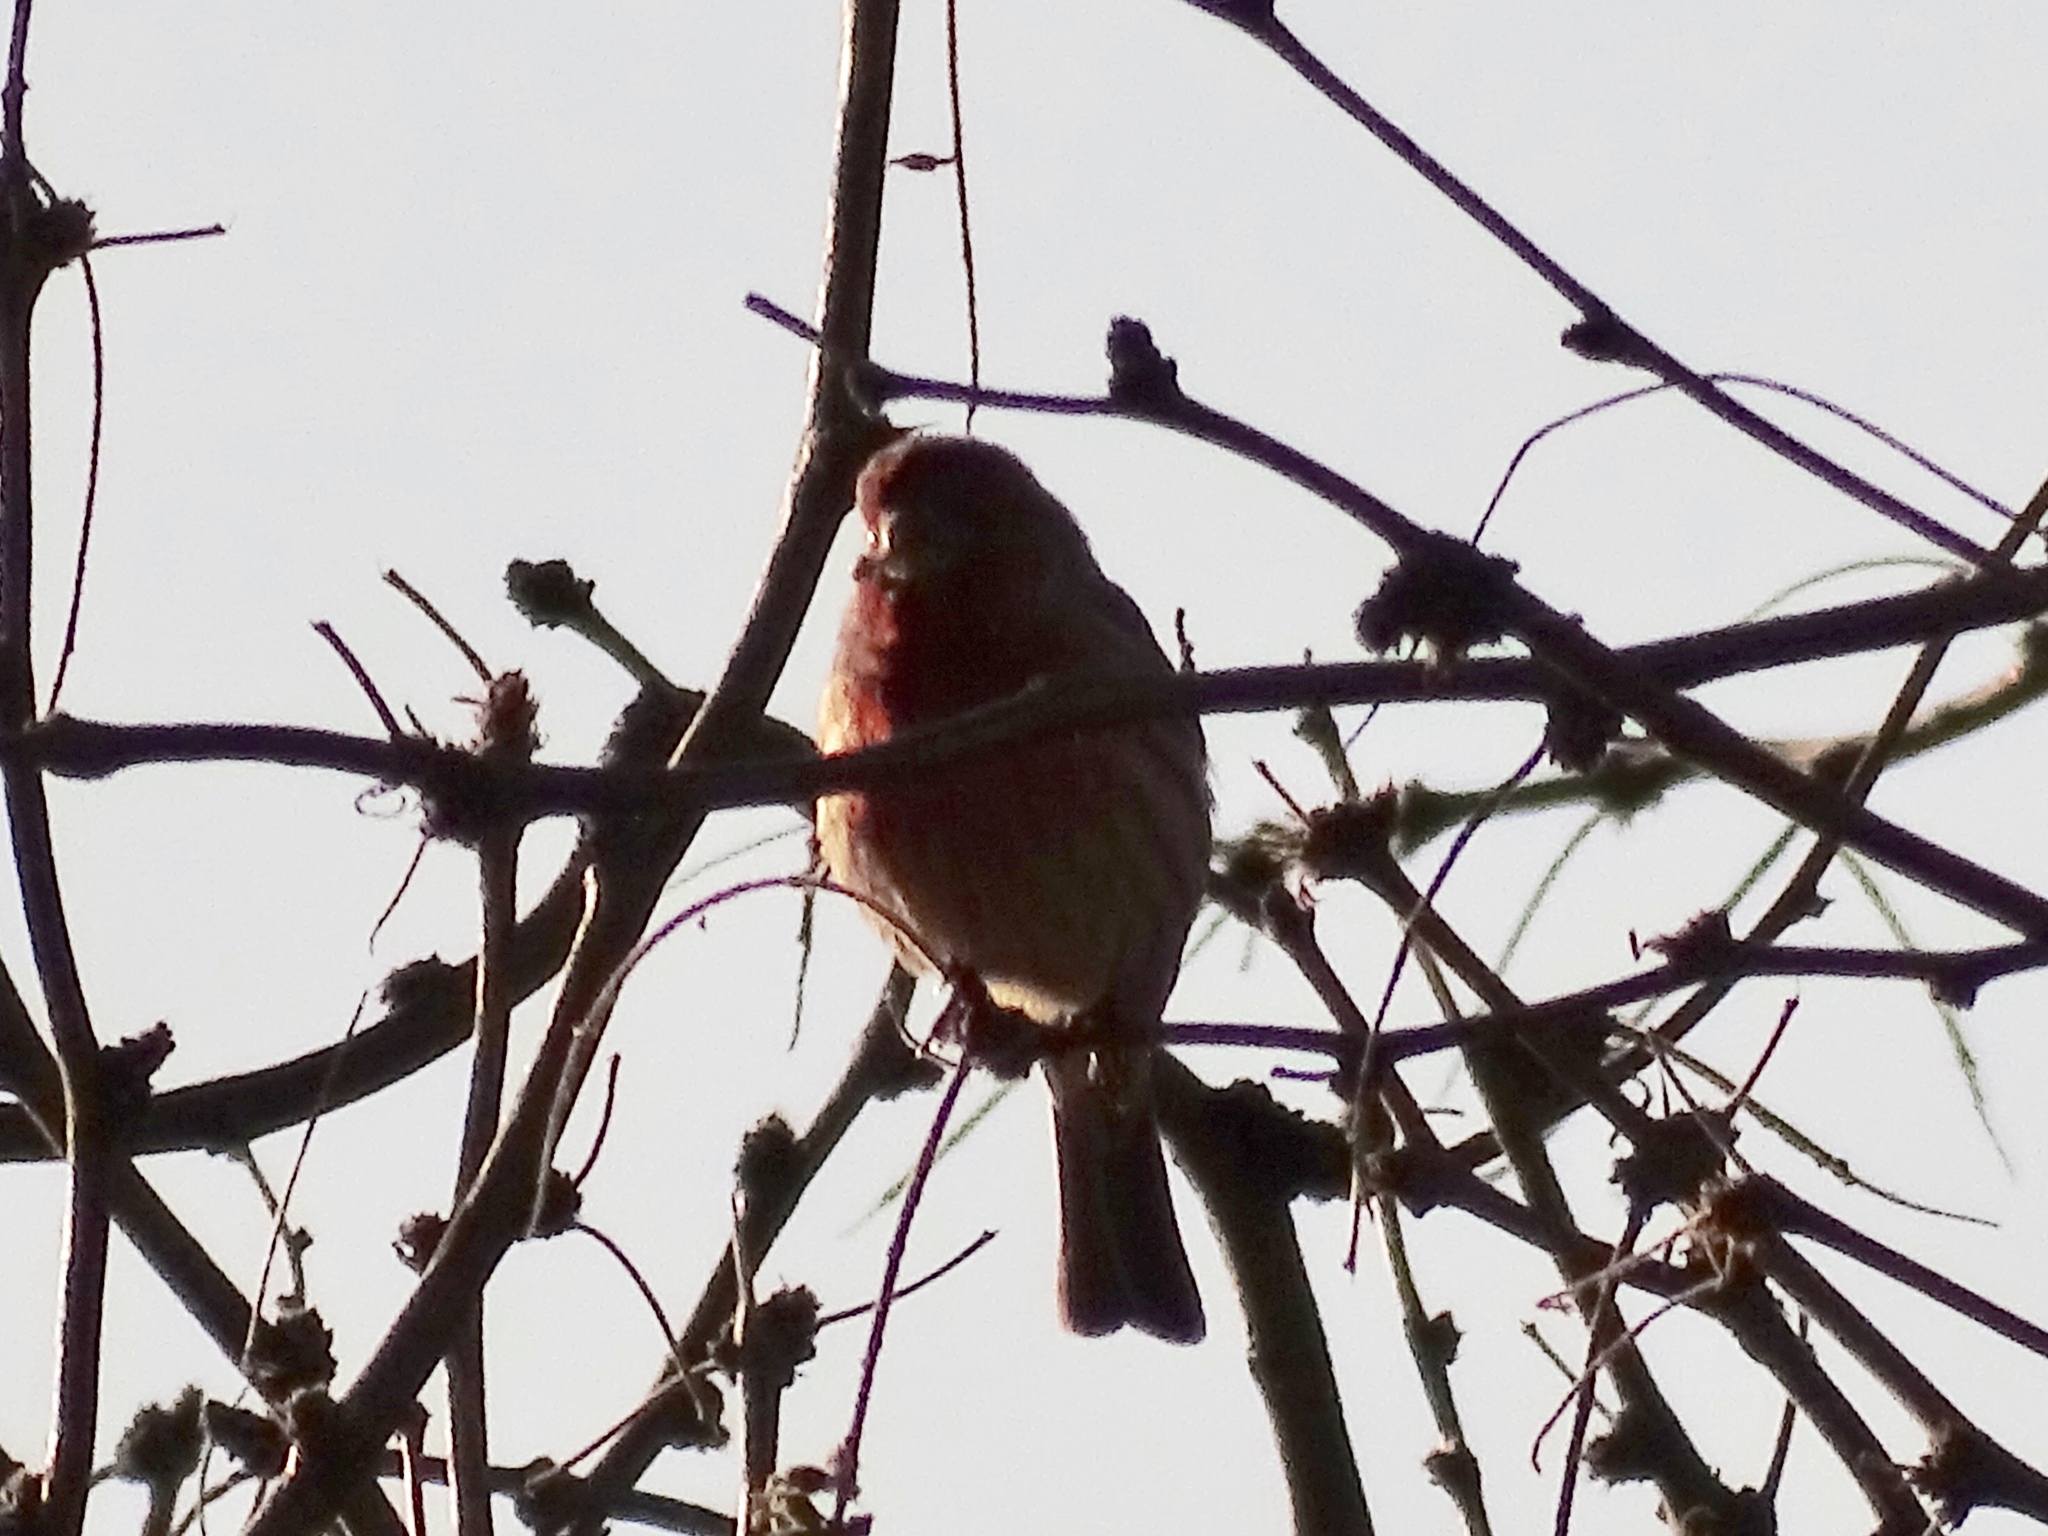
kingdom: Animalia
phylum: Chordata
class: Aves
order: Passeriformes
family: Fringillidae
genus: Haemorhous
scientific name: Haemorhous mexicanus
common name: House finch
